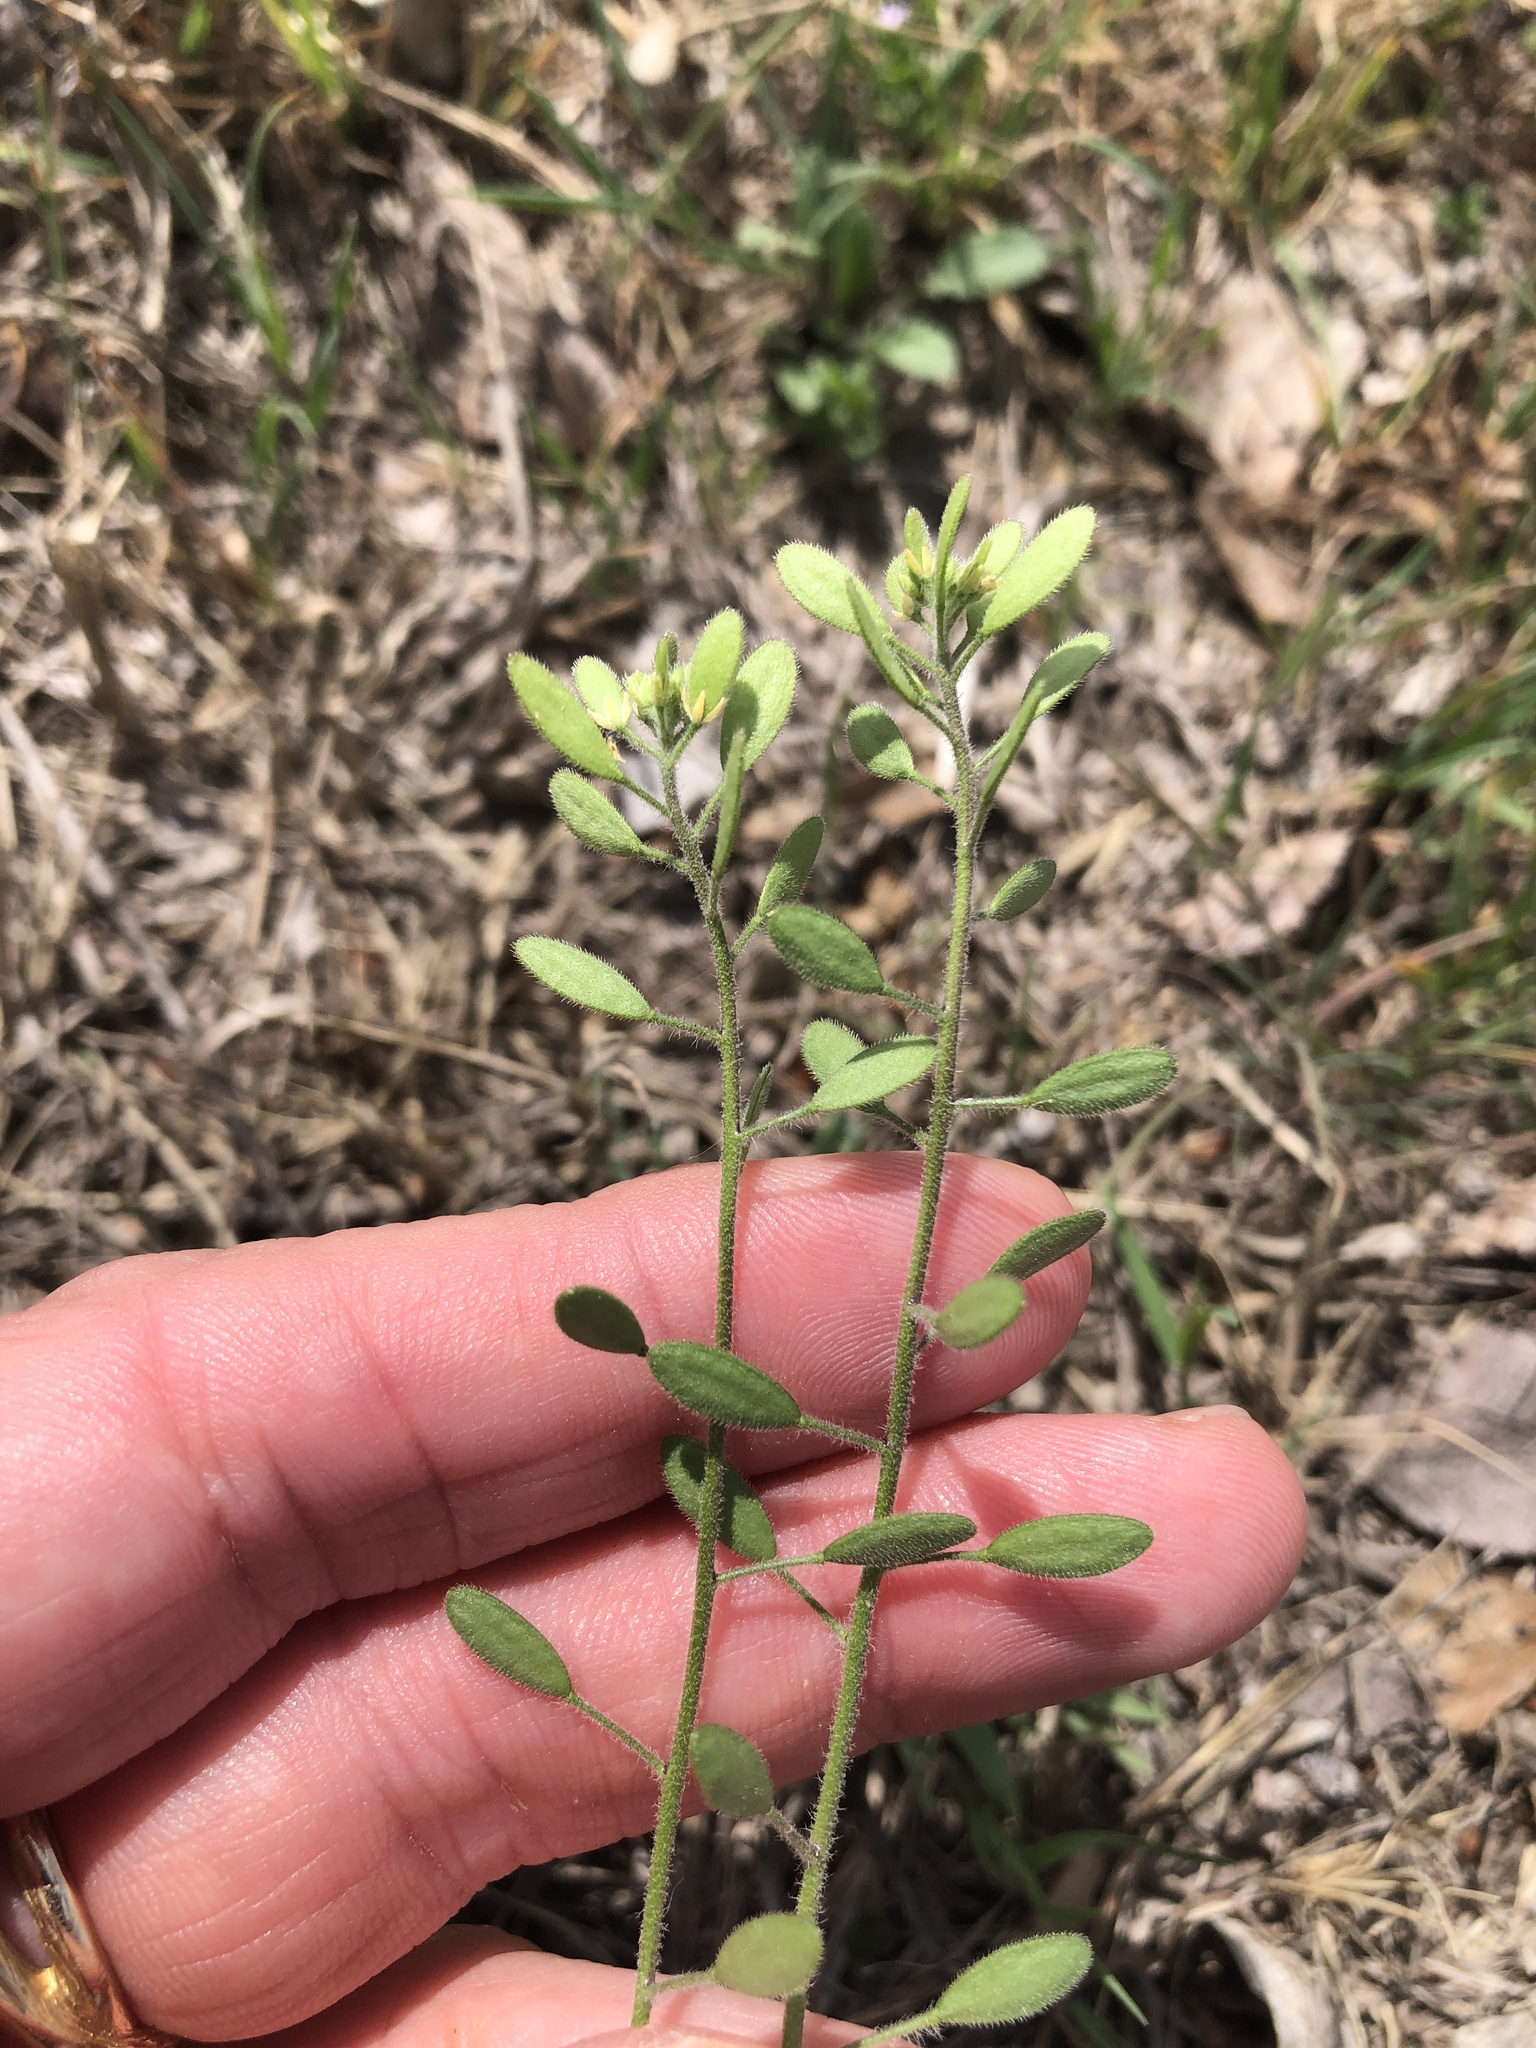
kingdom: Plantae
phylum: Tracheophyta
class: Magnoliopsida
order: Brassicales
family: Brassicaceae
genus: Tomostima
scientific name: Tomostima platycarpa
